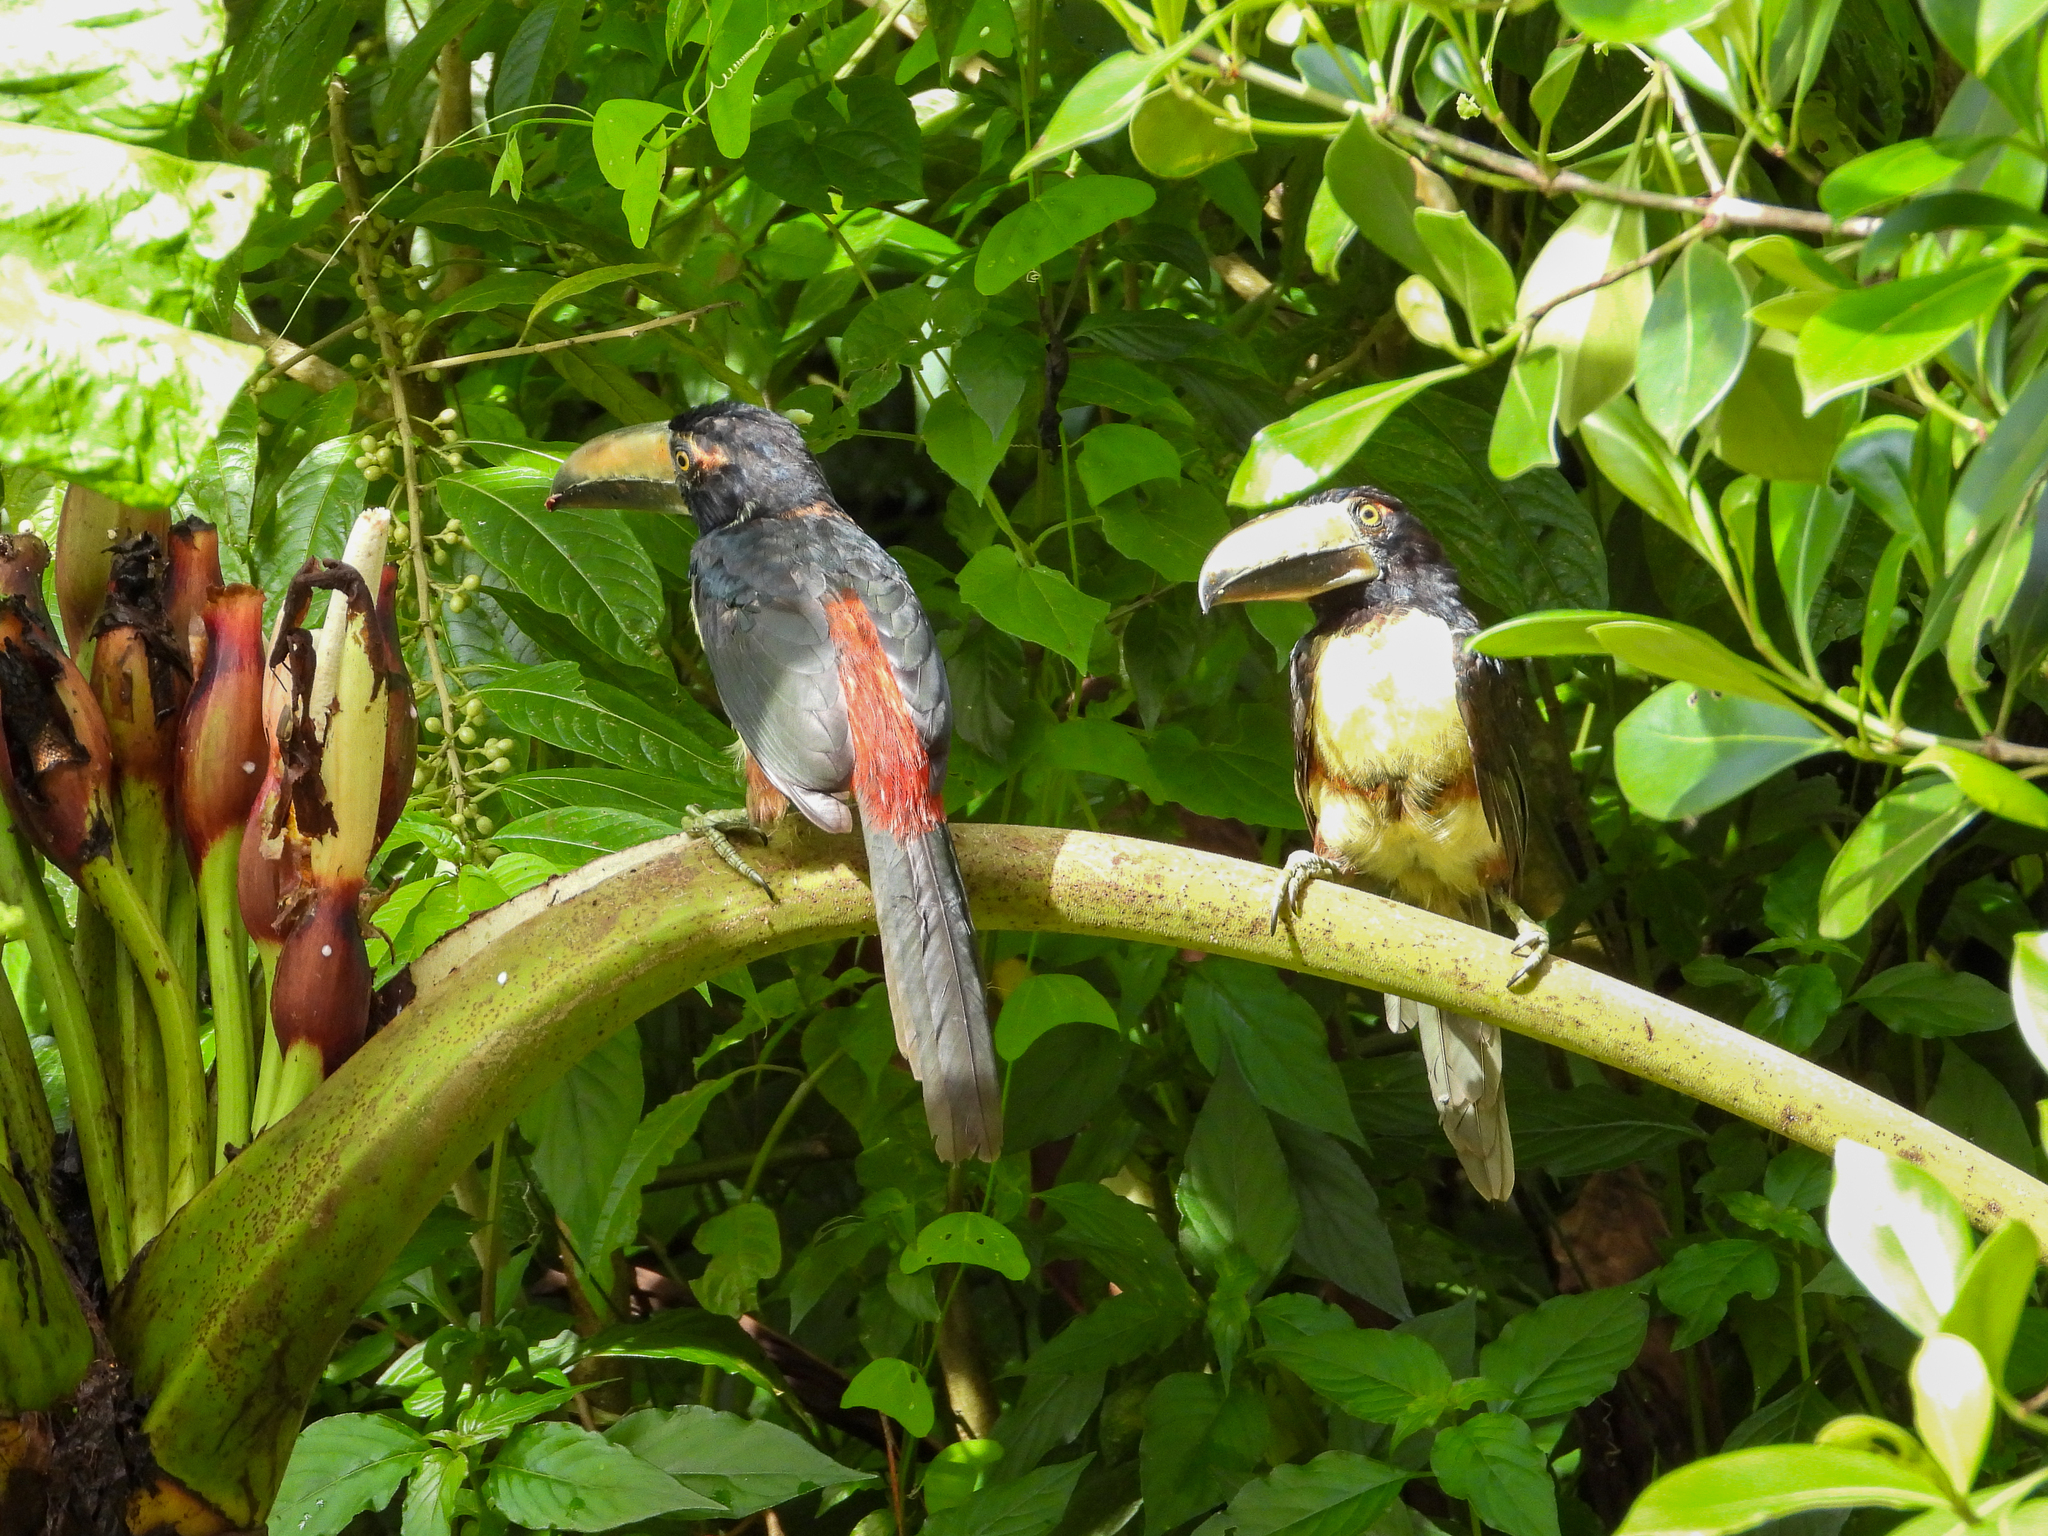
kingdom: Animalia
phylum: Chordata
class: Aves
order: Piciformes
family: Ramphastidae
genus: Pteroglossus
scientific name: Pteroglossus torquatus
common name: Collared aracari
